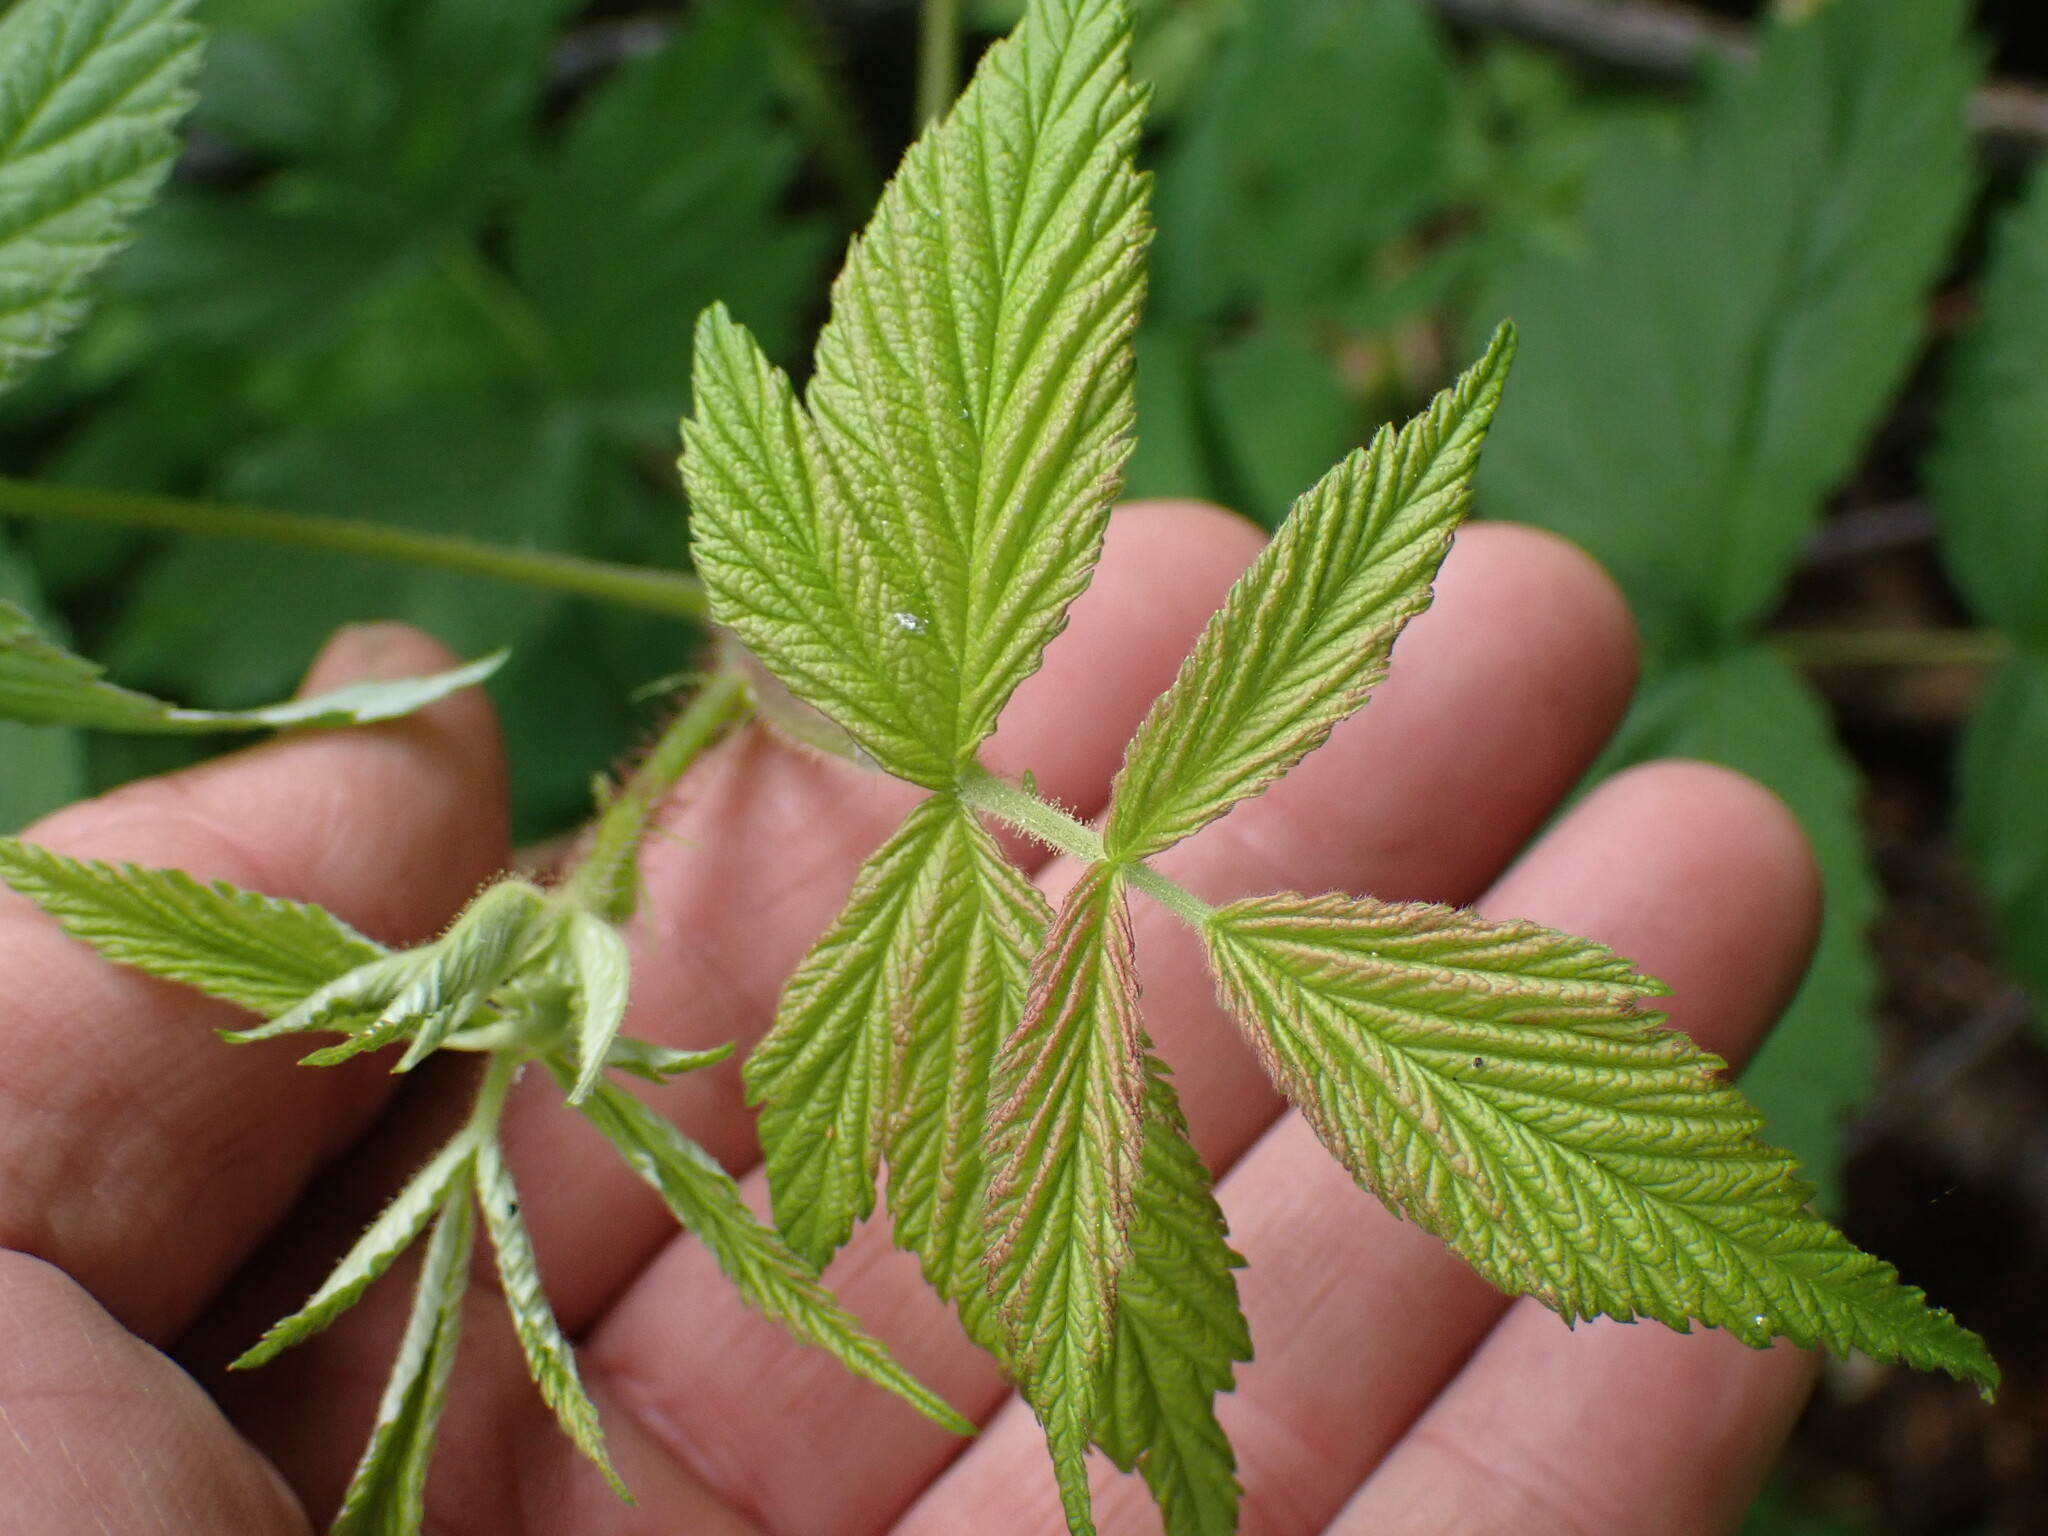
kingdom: Plantae
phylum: Tracheophyta
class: Magnoliopsida
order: Rosales
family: Rosaceae
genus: Rubus
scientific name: Rubus idaeus
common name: Raspberry
